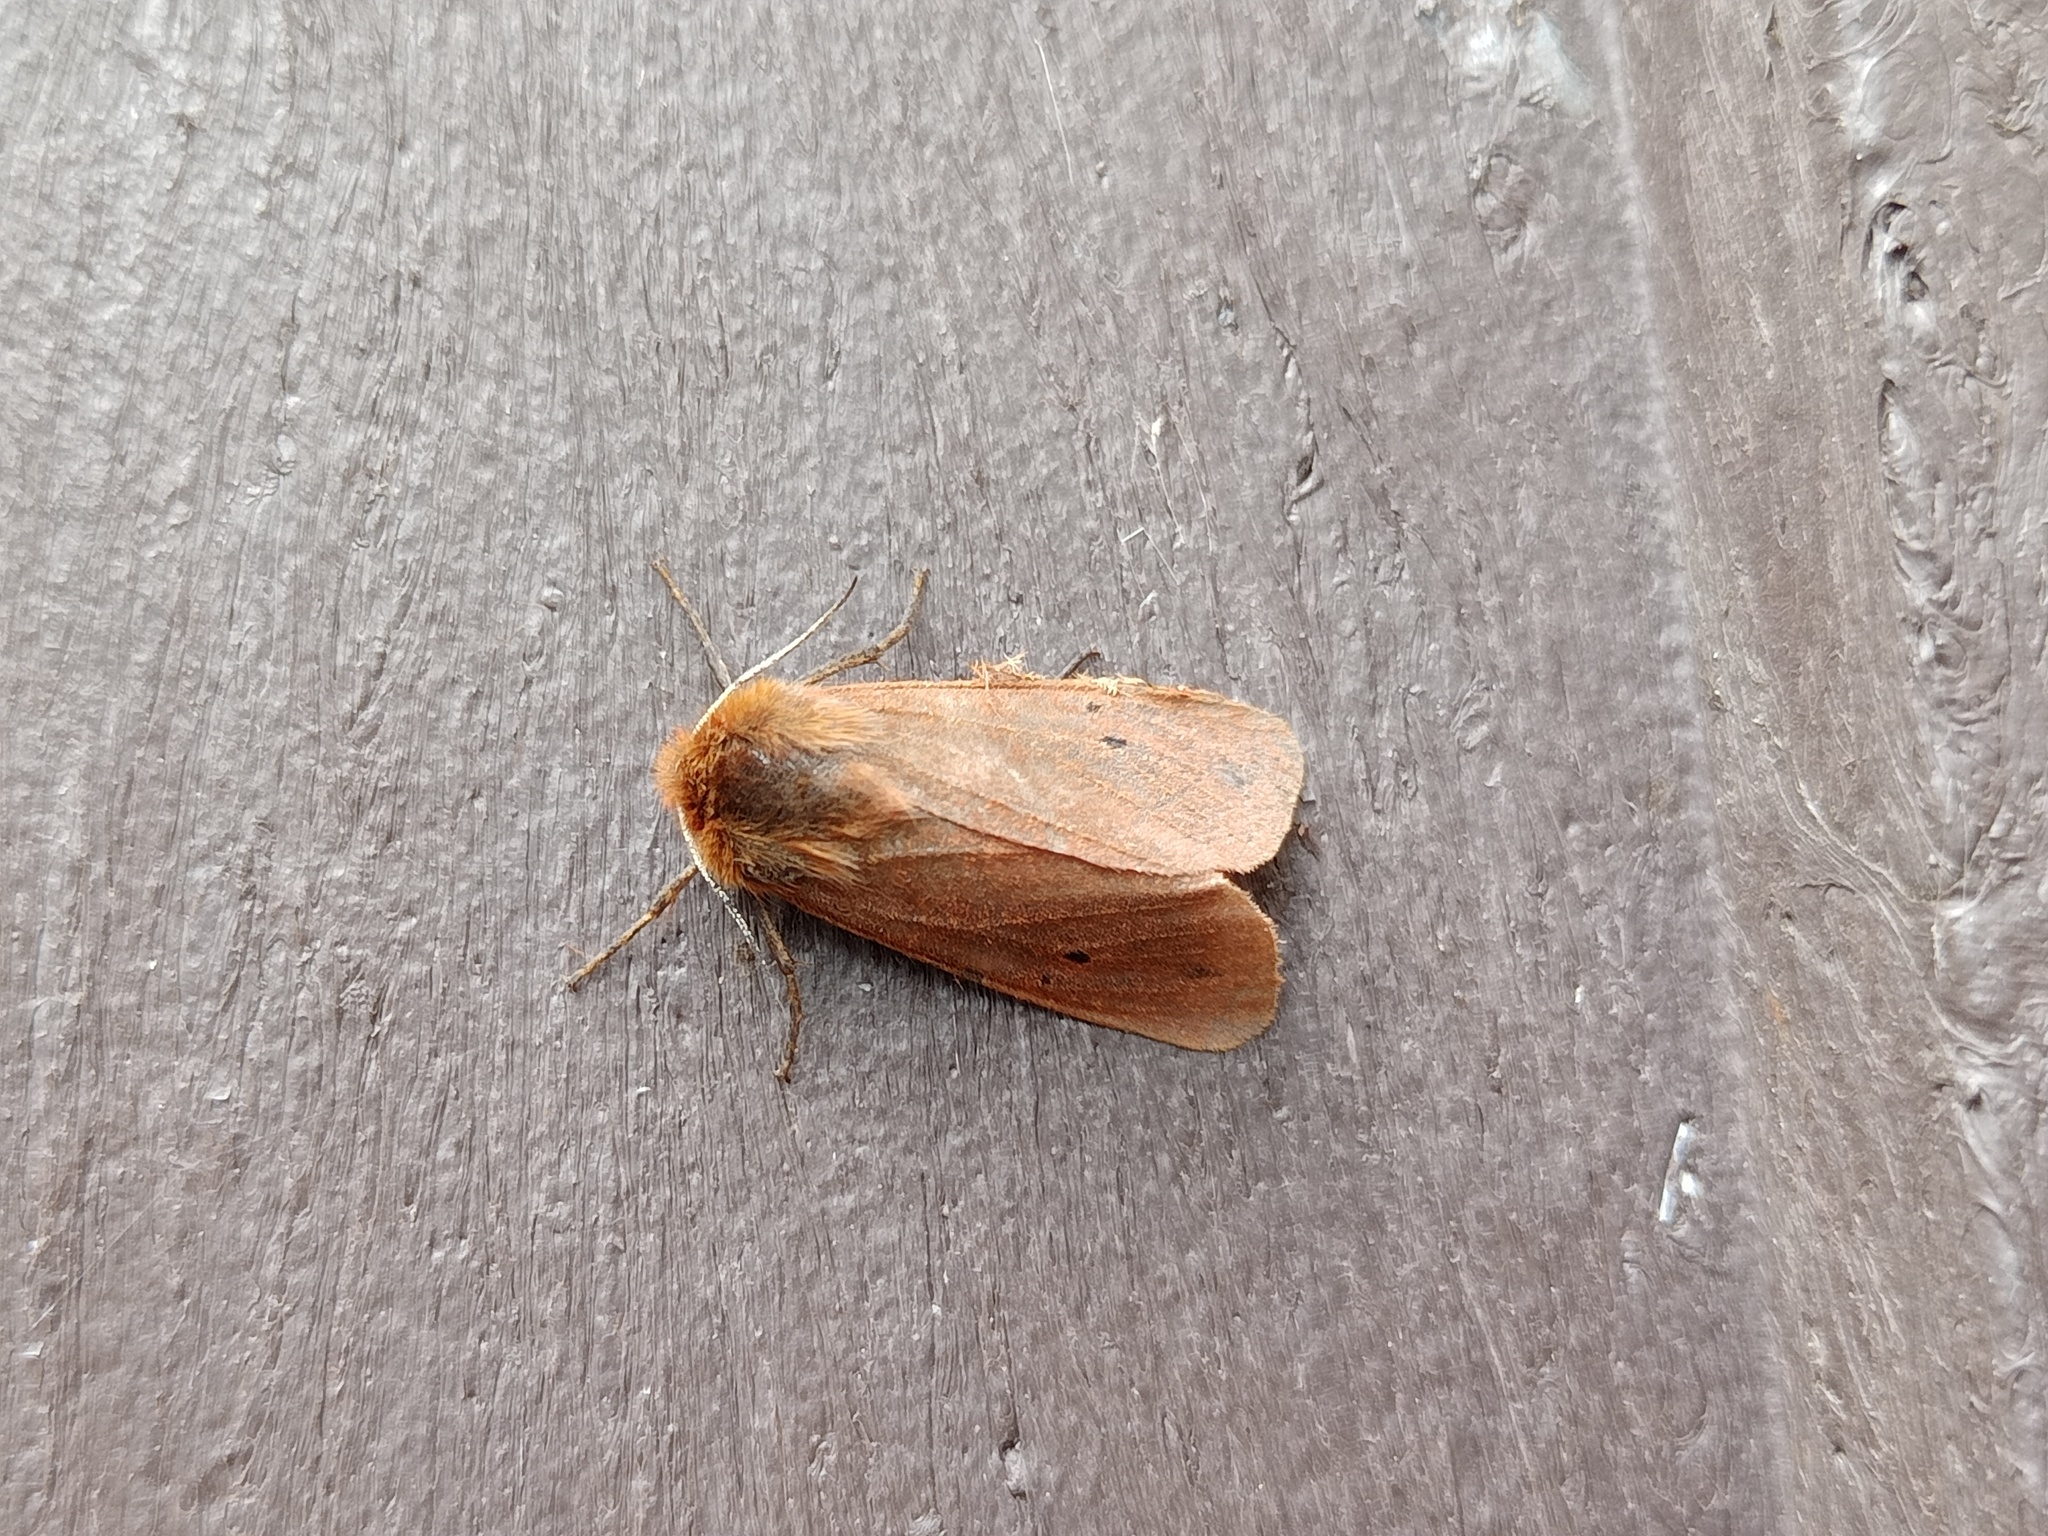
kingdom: Animalia
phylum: Arthropoda
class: Insecta
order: Lepidoptera
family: Erebidae
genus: Phragmatobia
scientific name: Phragmatobia fuliginosa
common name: Ruby tiger
